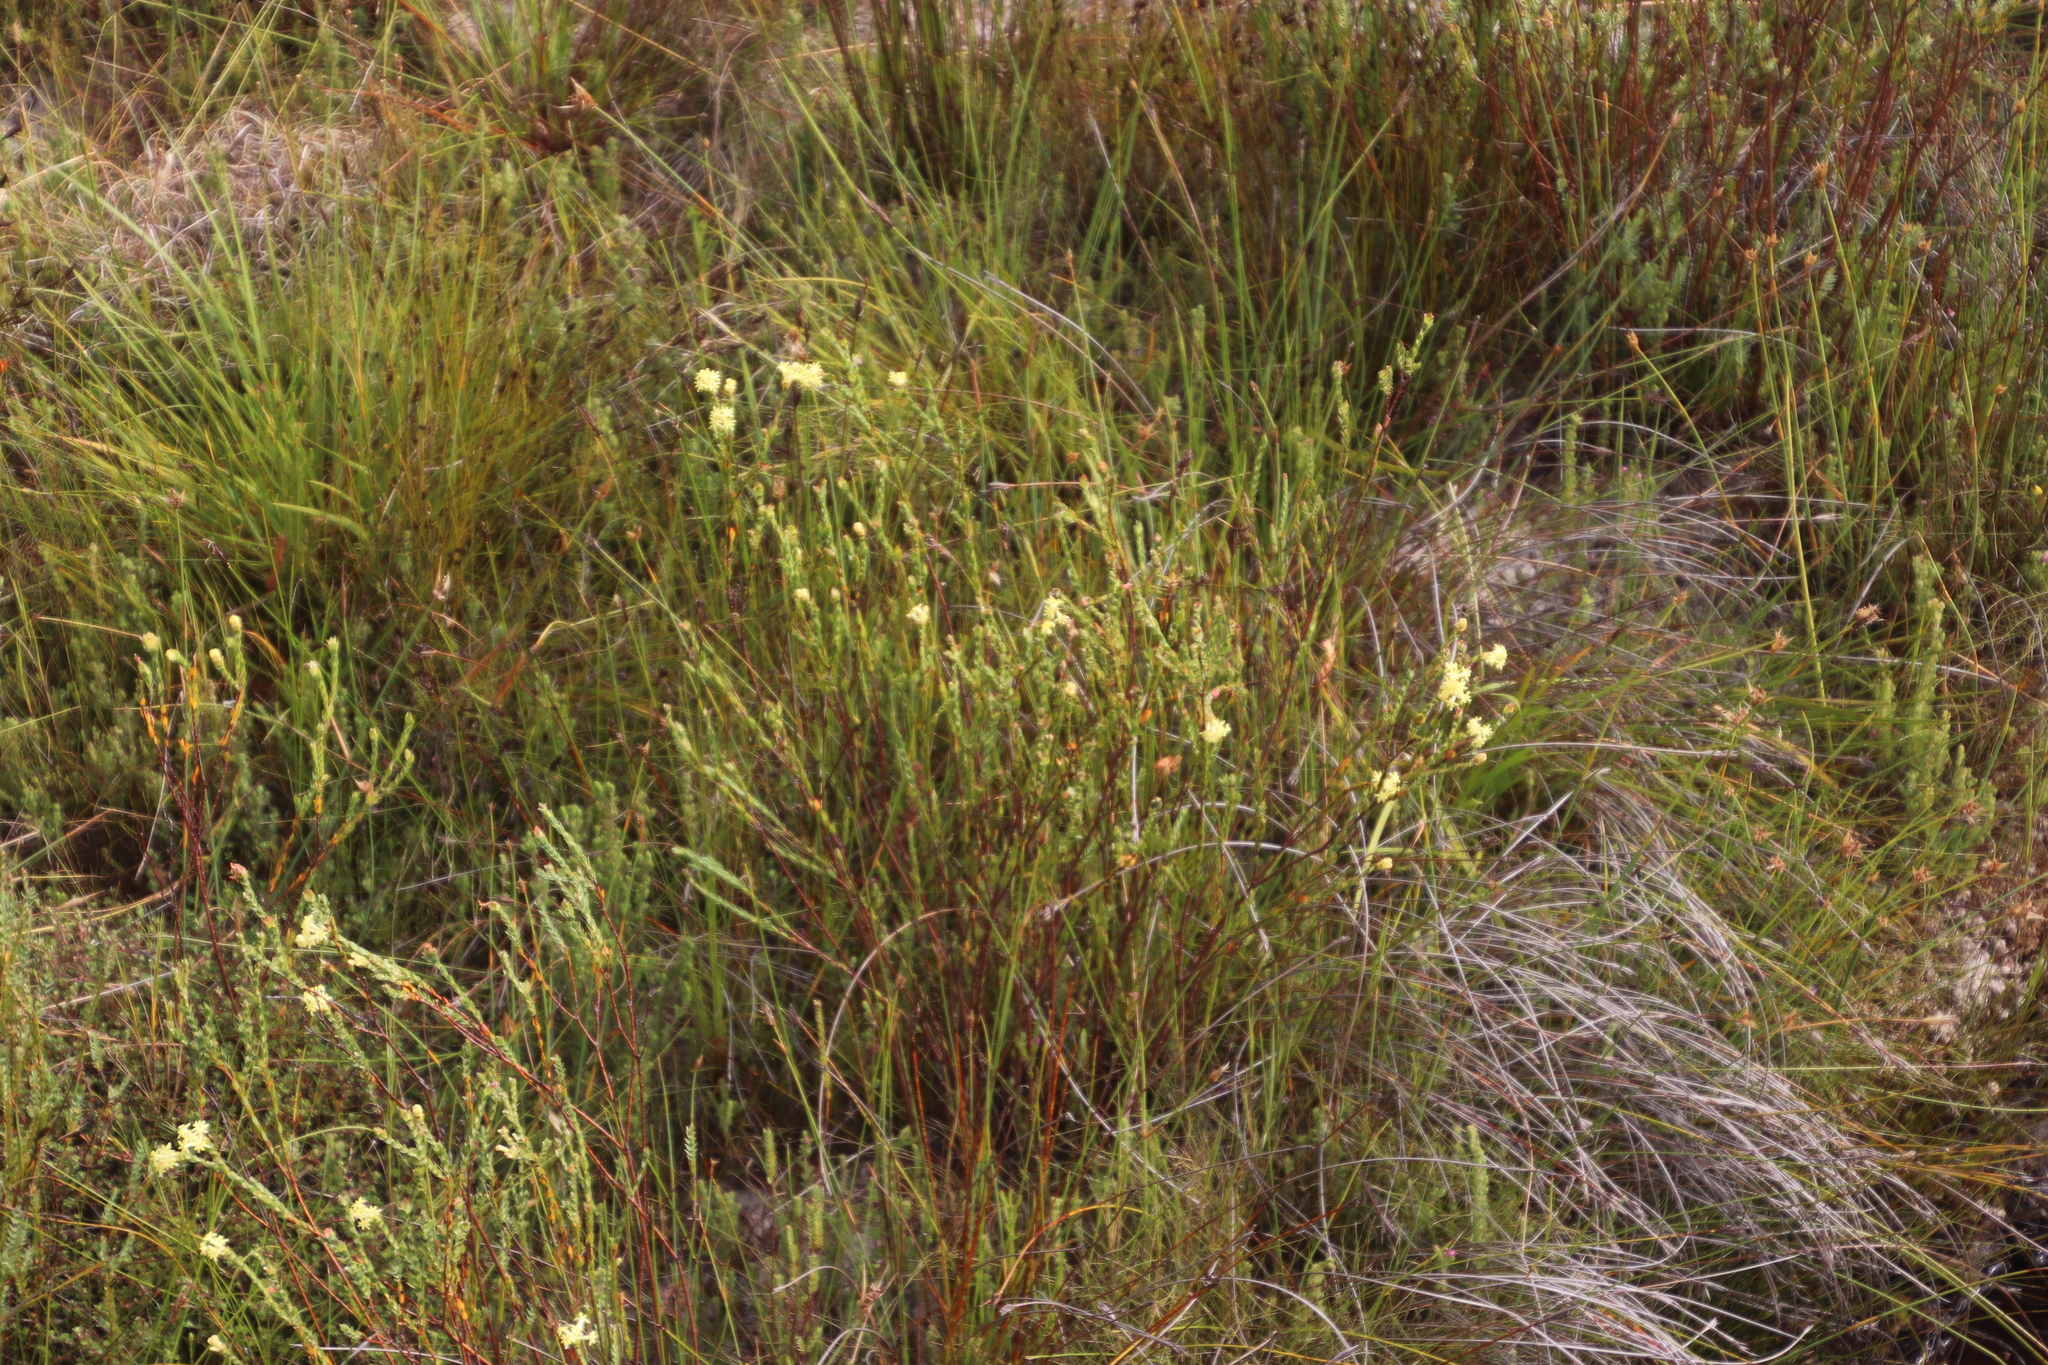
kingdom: Plantae
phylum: Tracheophyta
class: Magnoliopsida
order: Malvales
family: Thymelaeaceae
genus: Gnidia
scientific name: Gnidia oppositifolia
